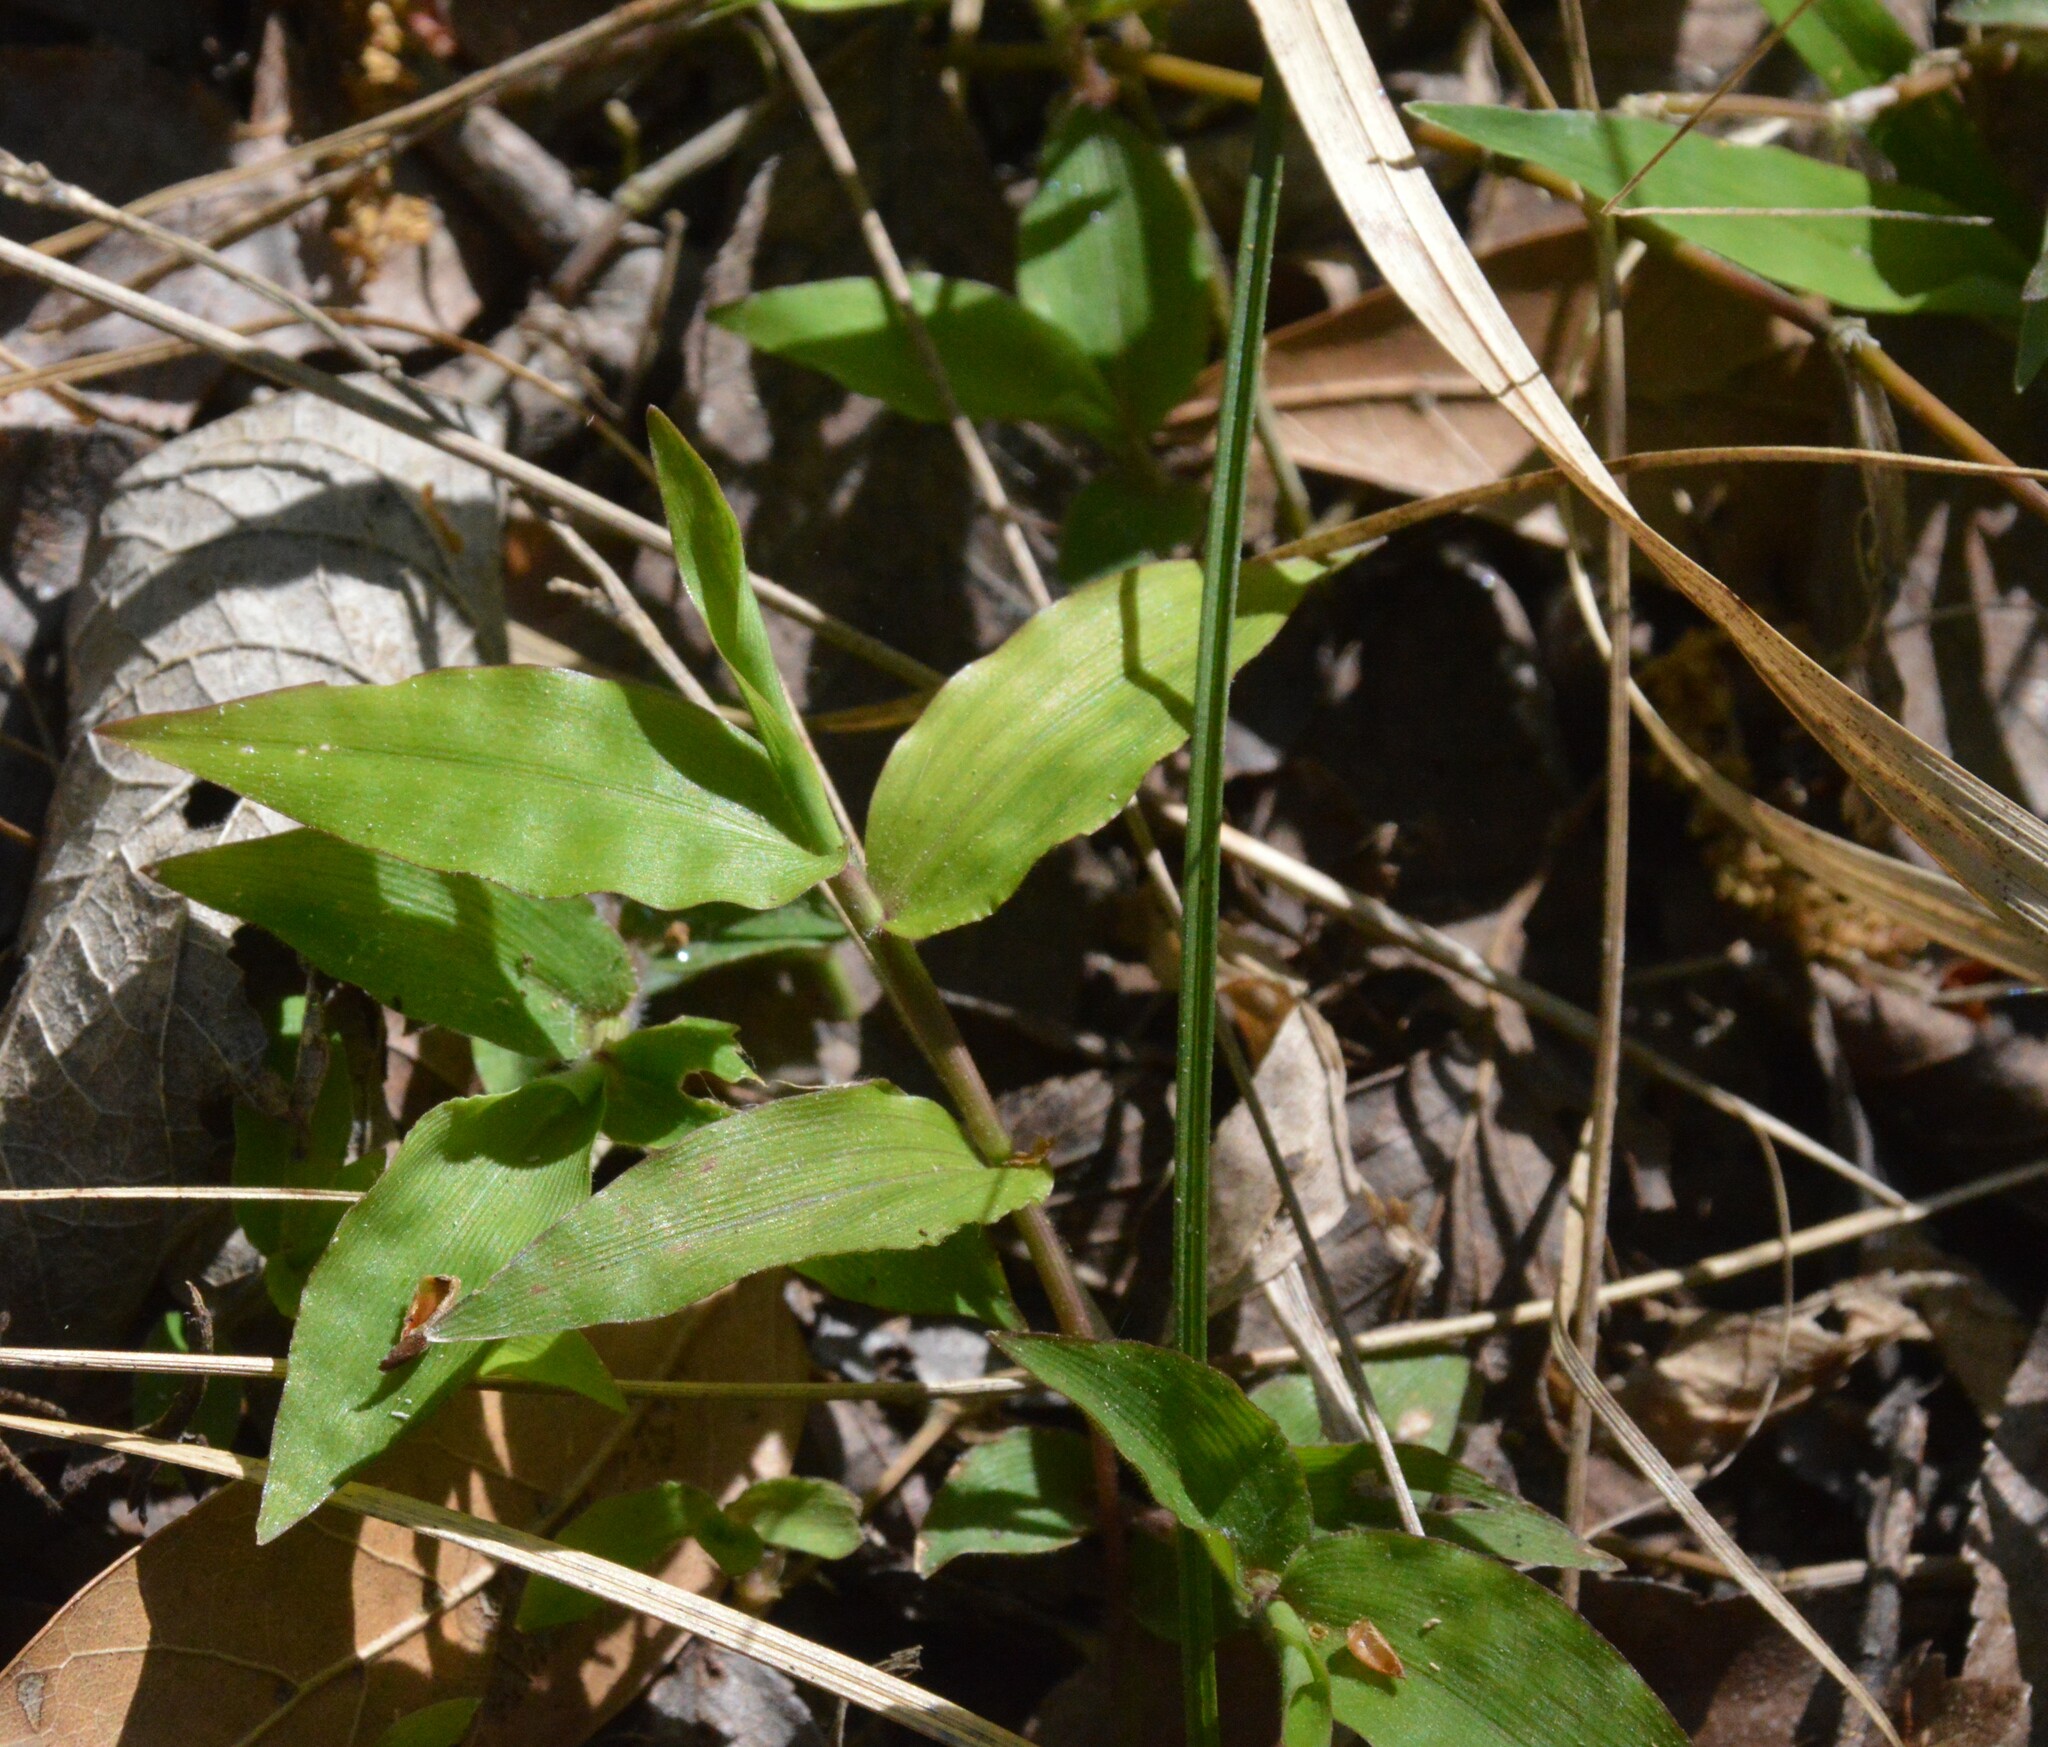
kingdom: Plantae
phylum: Tracheophyta
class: Liliopsida
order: Poales
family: Poaceae
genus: Oplismenus
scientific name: Oplismenus hirtellus
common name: Basketgrass
